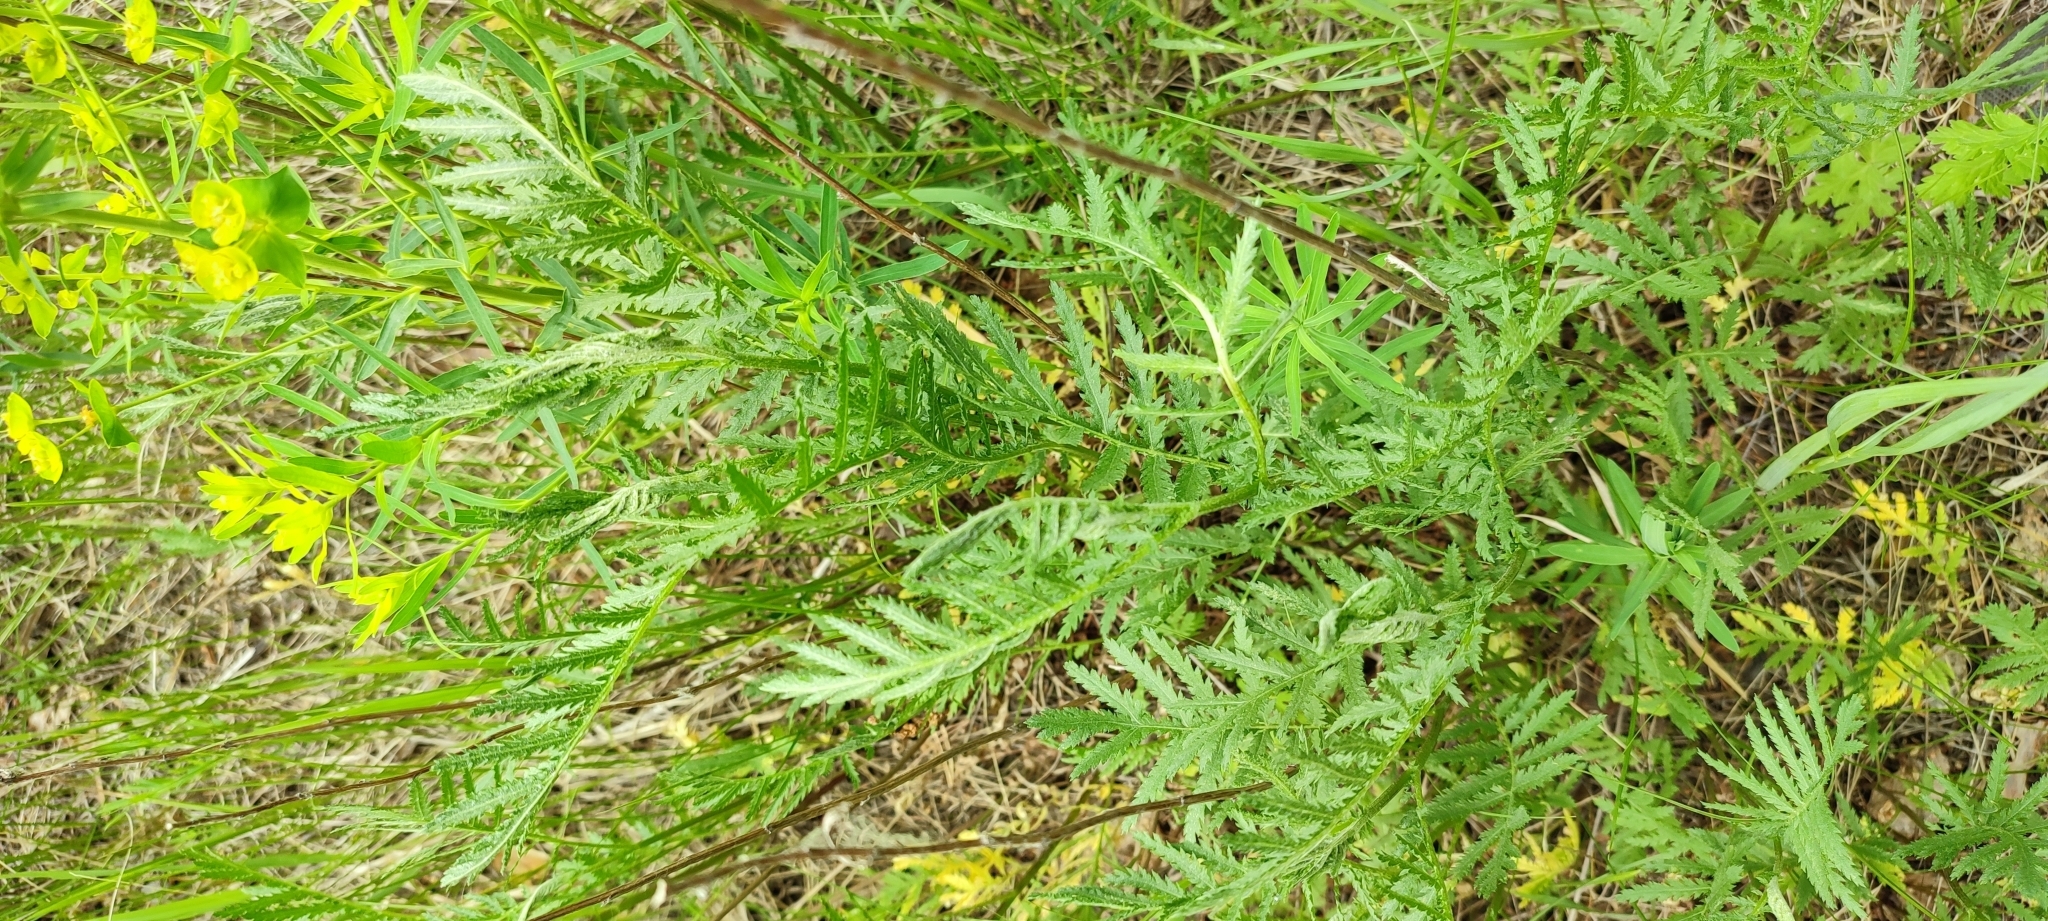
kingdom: Plantae
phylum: Tracheophyta
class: Magnoliopsida
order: Asterales
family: Asteraceae
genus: Tanacetum
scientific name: Tanacetum vulgare
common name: Common tansy
